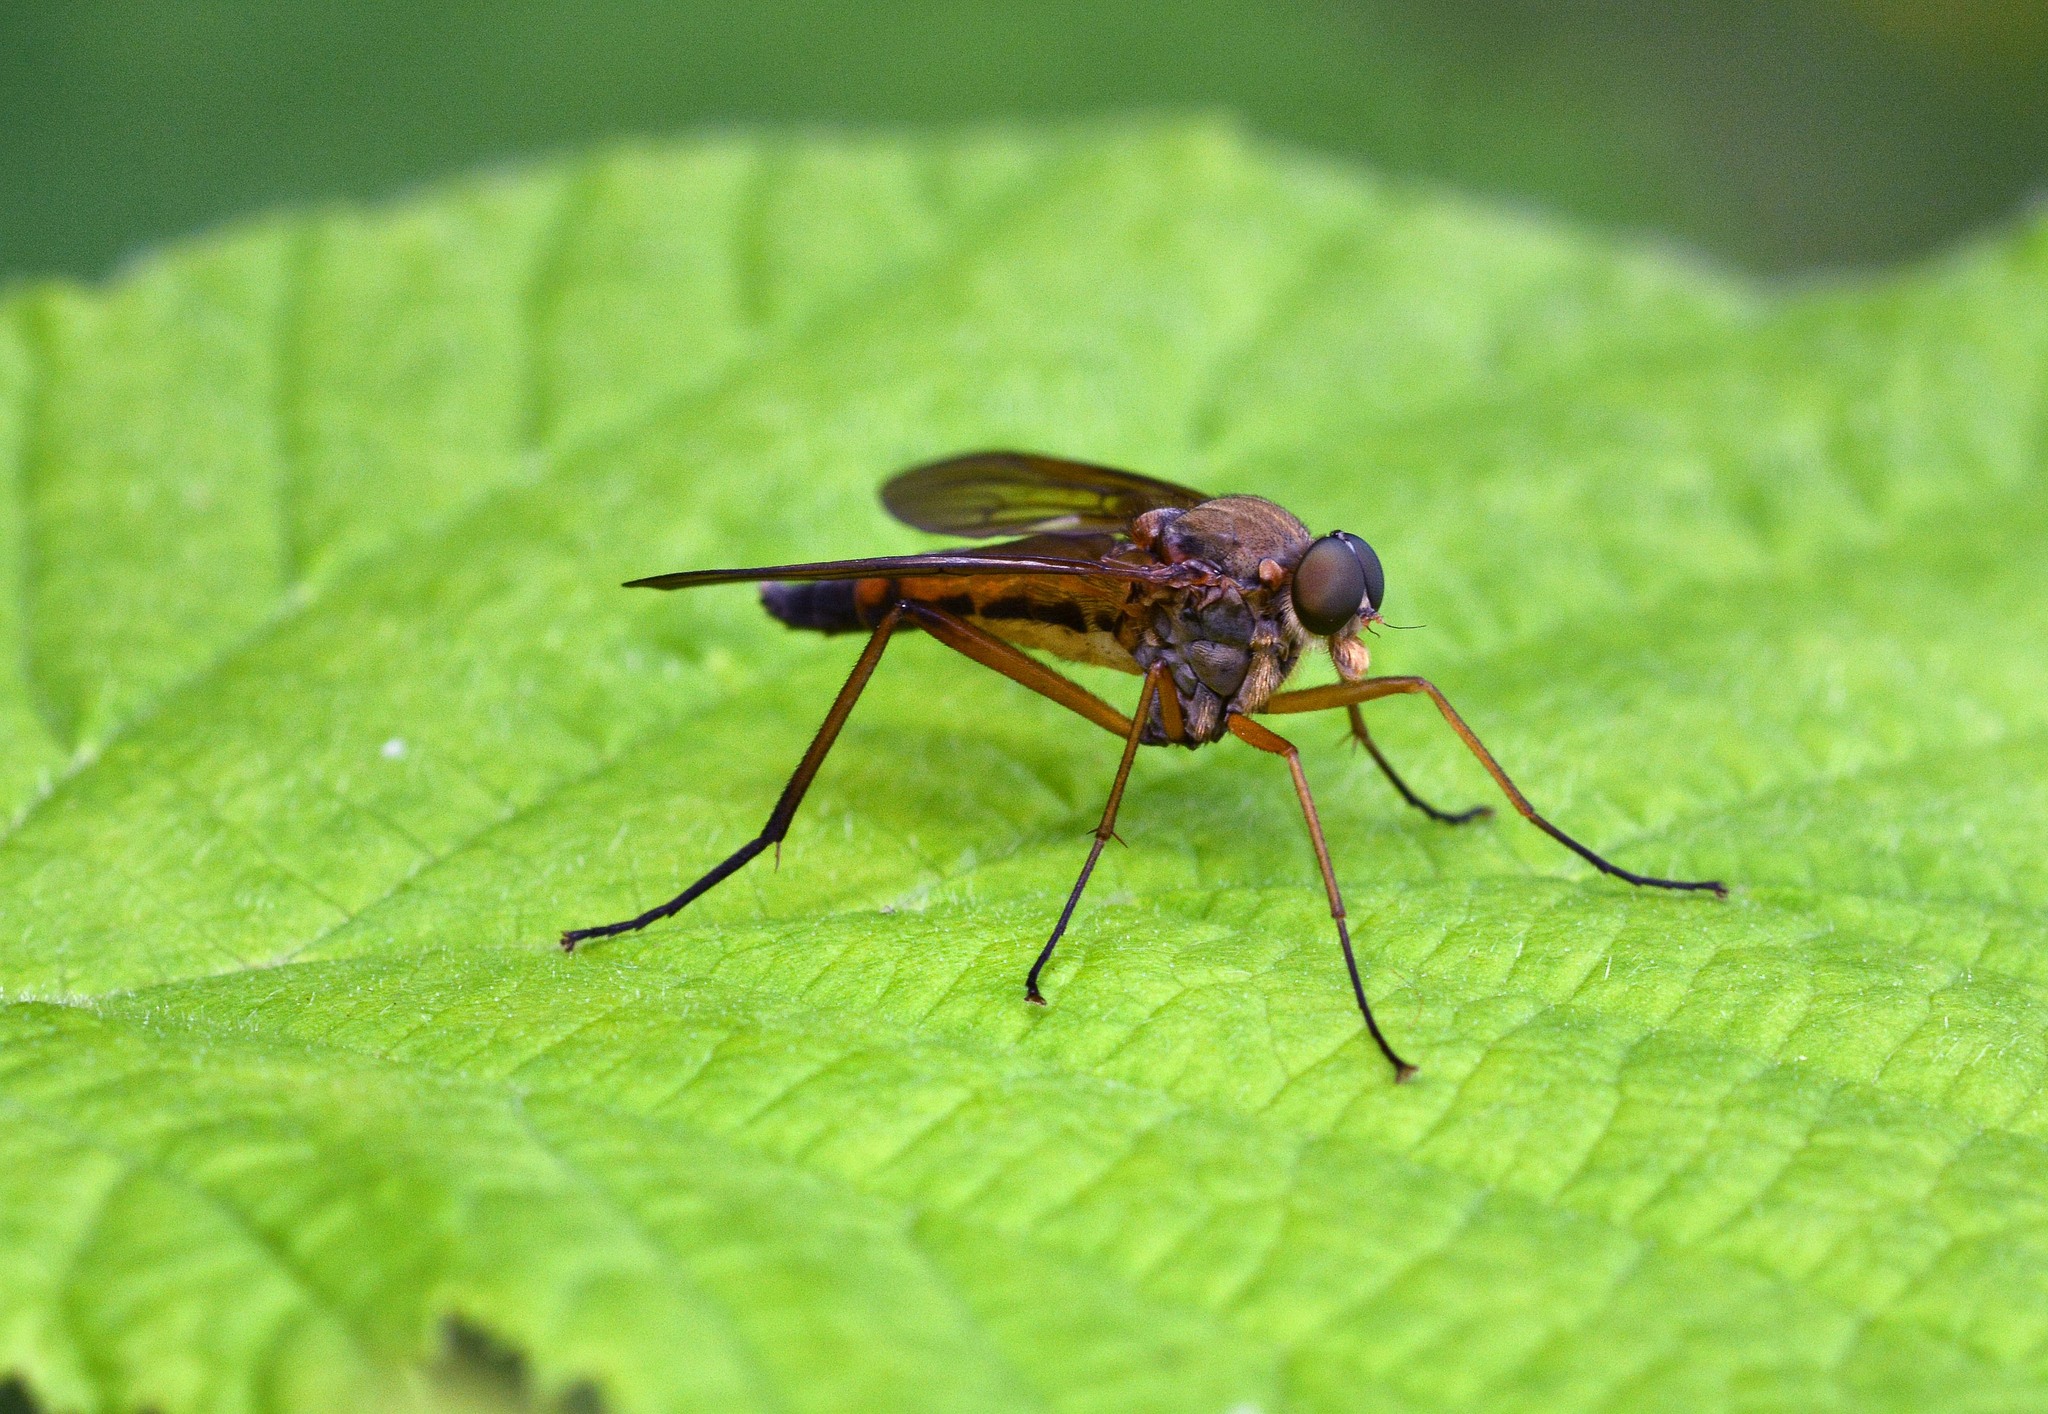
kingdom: Animalia
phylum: Arthropoda
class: Insecta
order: Diptera
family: Rhagionidae
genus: Rhagio
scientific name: Rhagio tringaria
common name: Marsh snipefly
